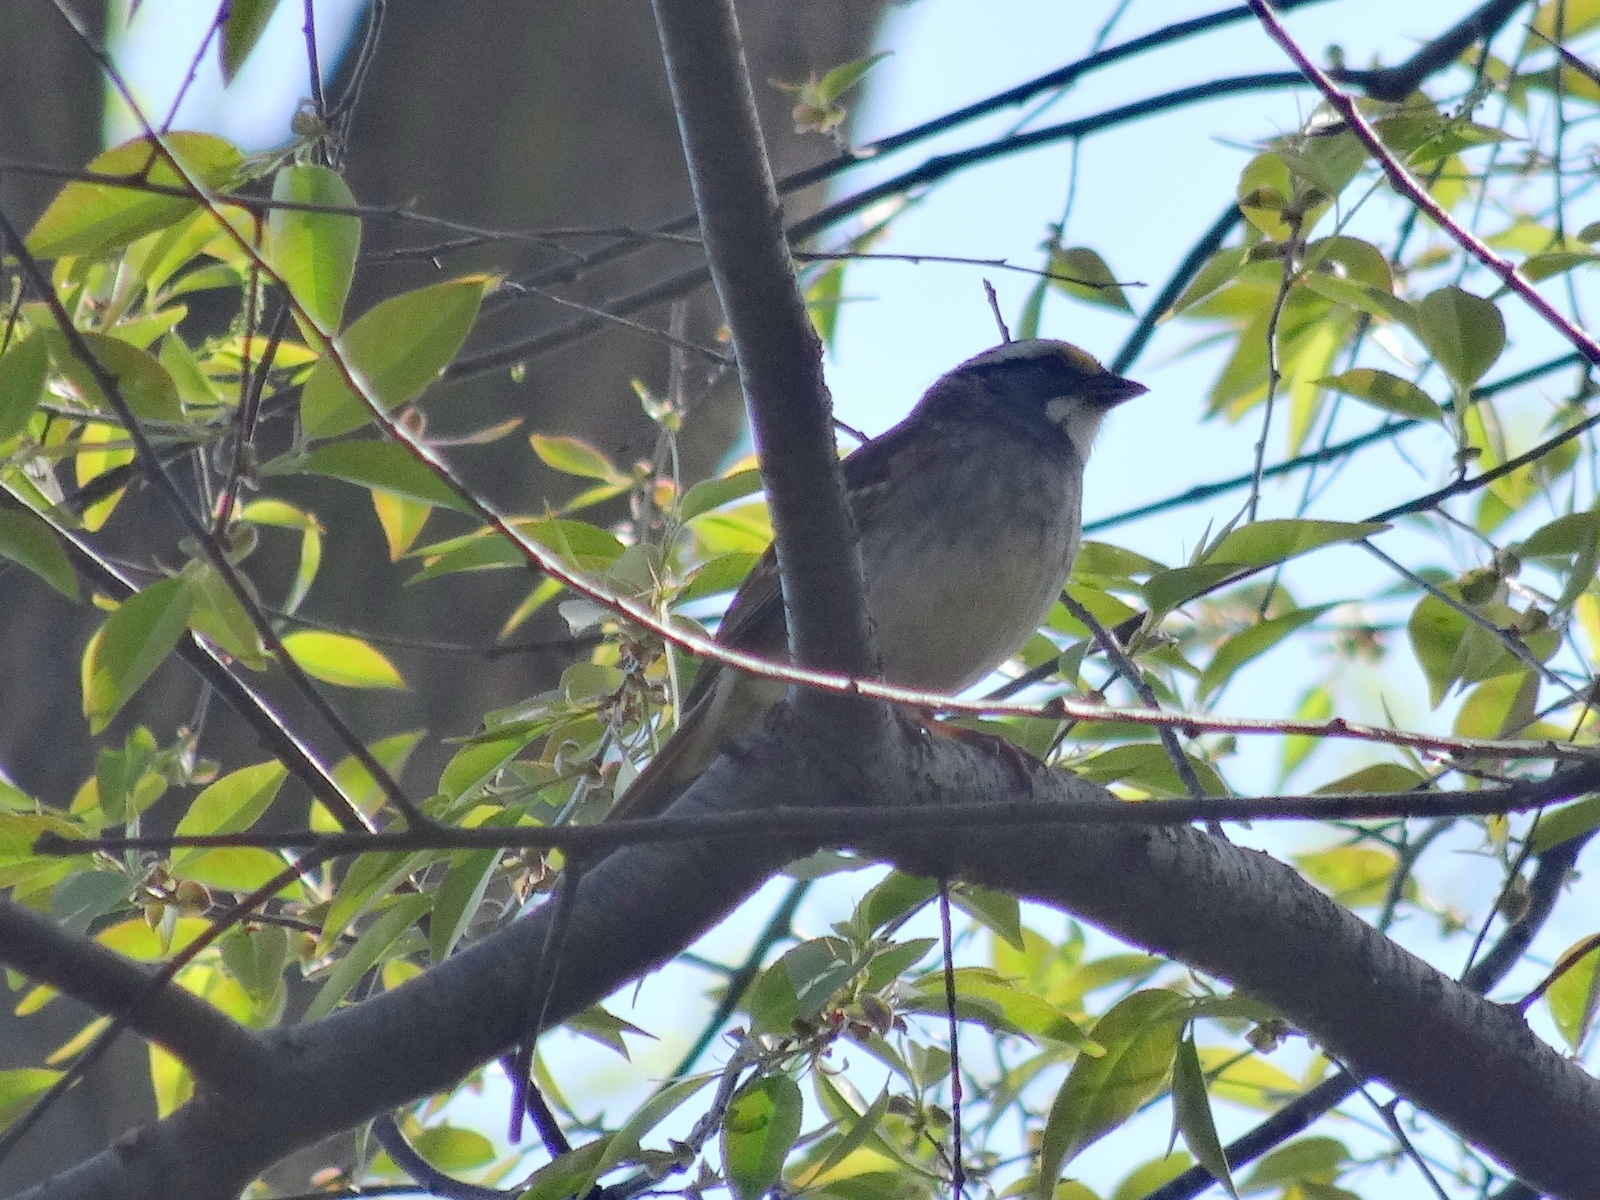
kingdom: Animalia
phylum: Chordata
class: Aves
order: Passeriformes
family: Passerellidae
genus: Zonotrichia
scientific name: Zonotrichia albicollis
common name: White-throated sparrow
